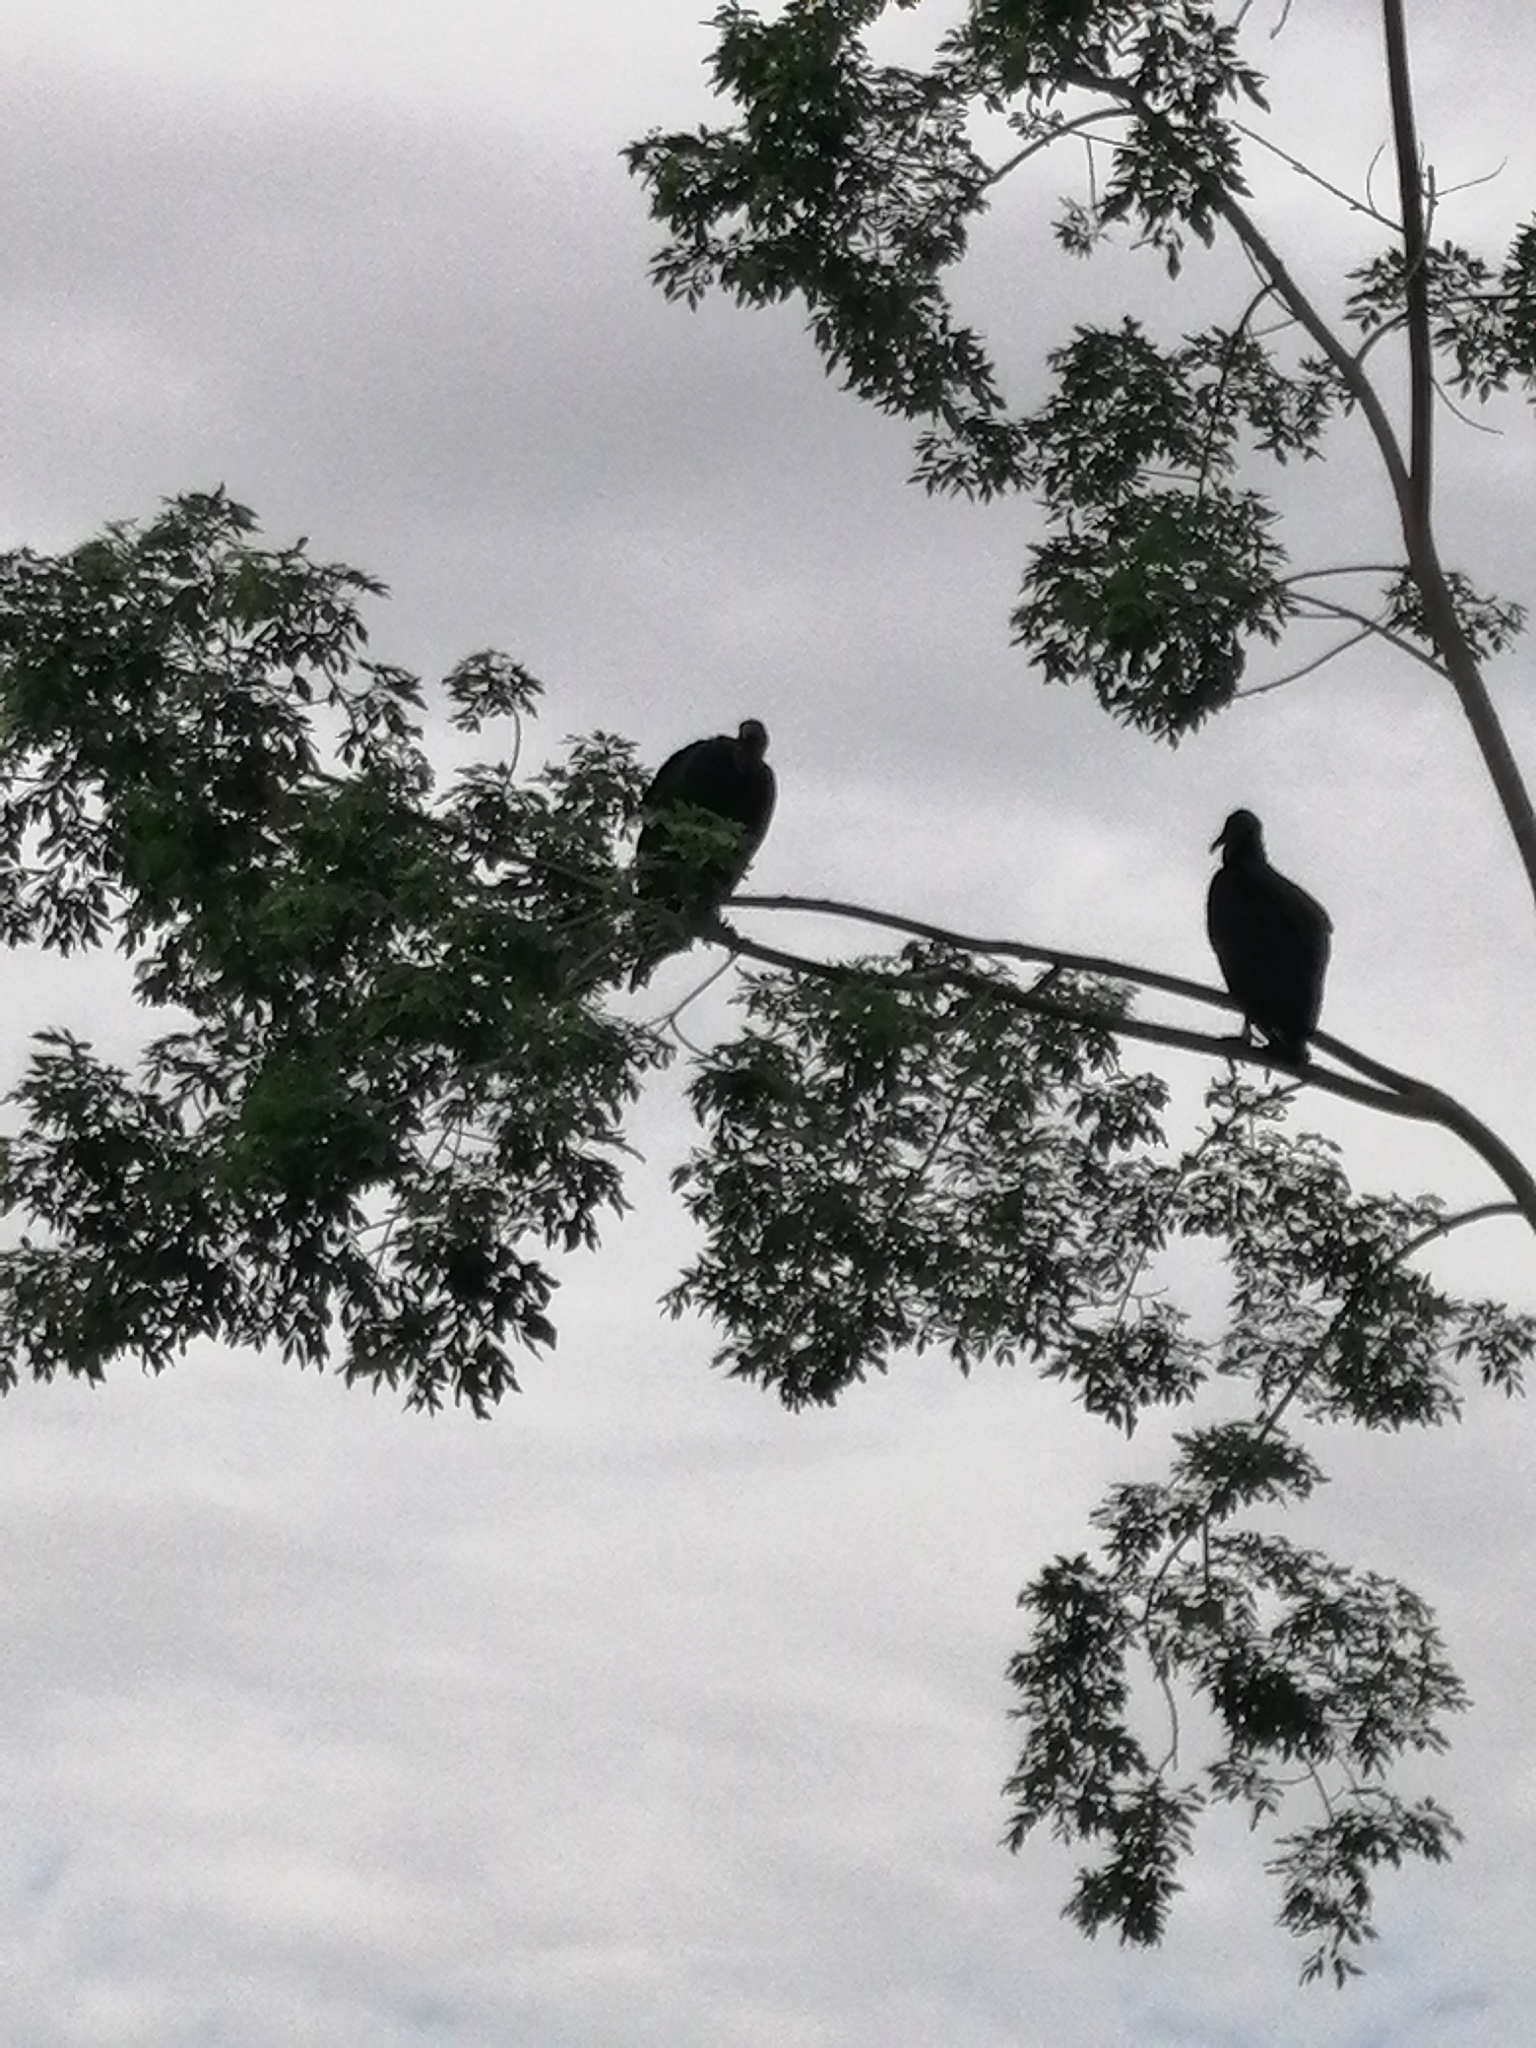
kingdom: Animalia
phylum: Chordata
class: Aves
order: Accipitriformes
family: Cathartidae
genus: Coragyps
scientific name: Coragyps atratus
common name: Black vulture
